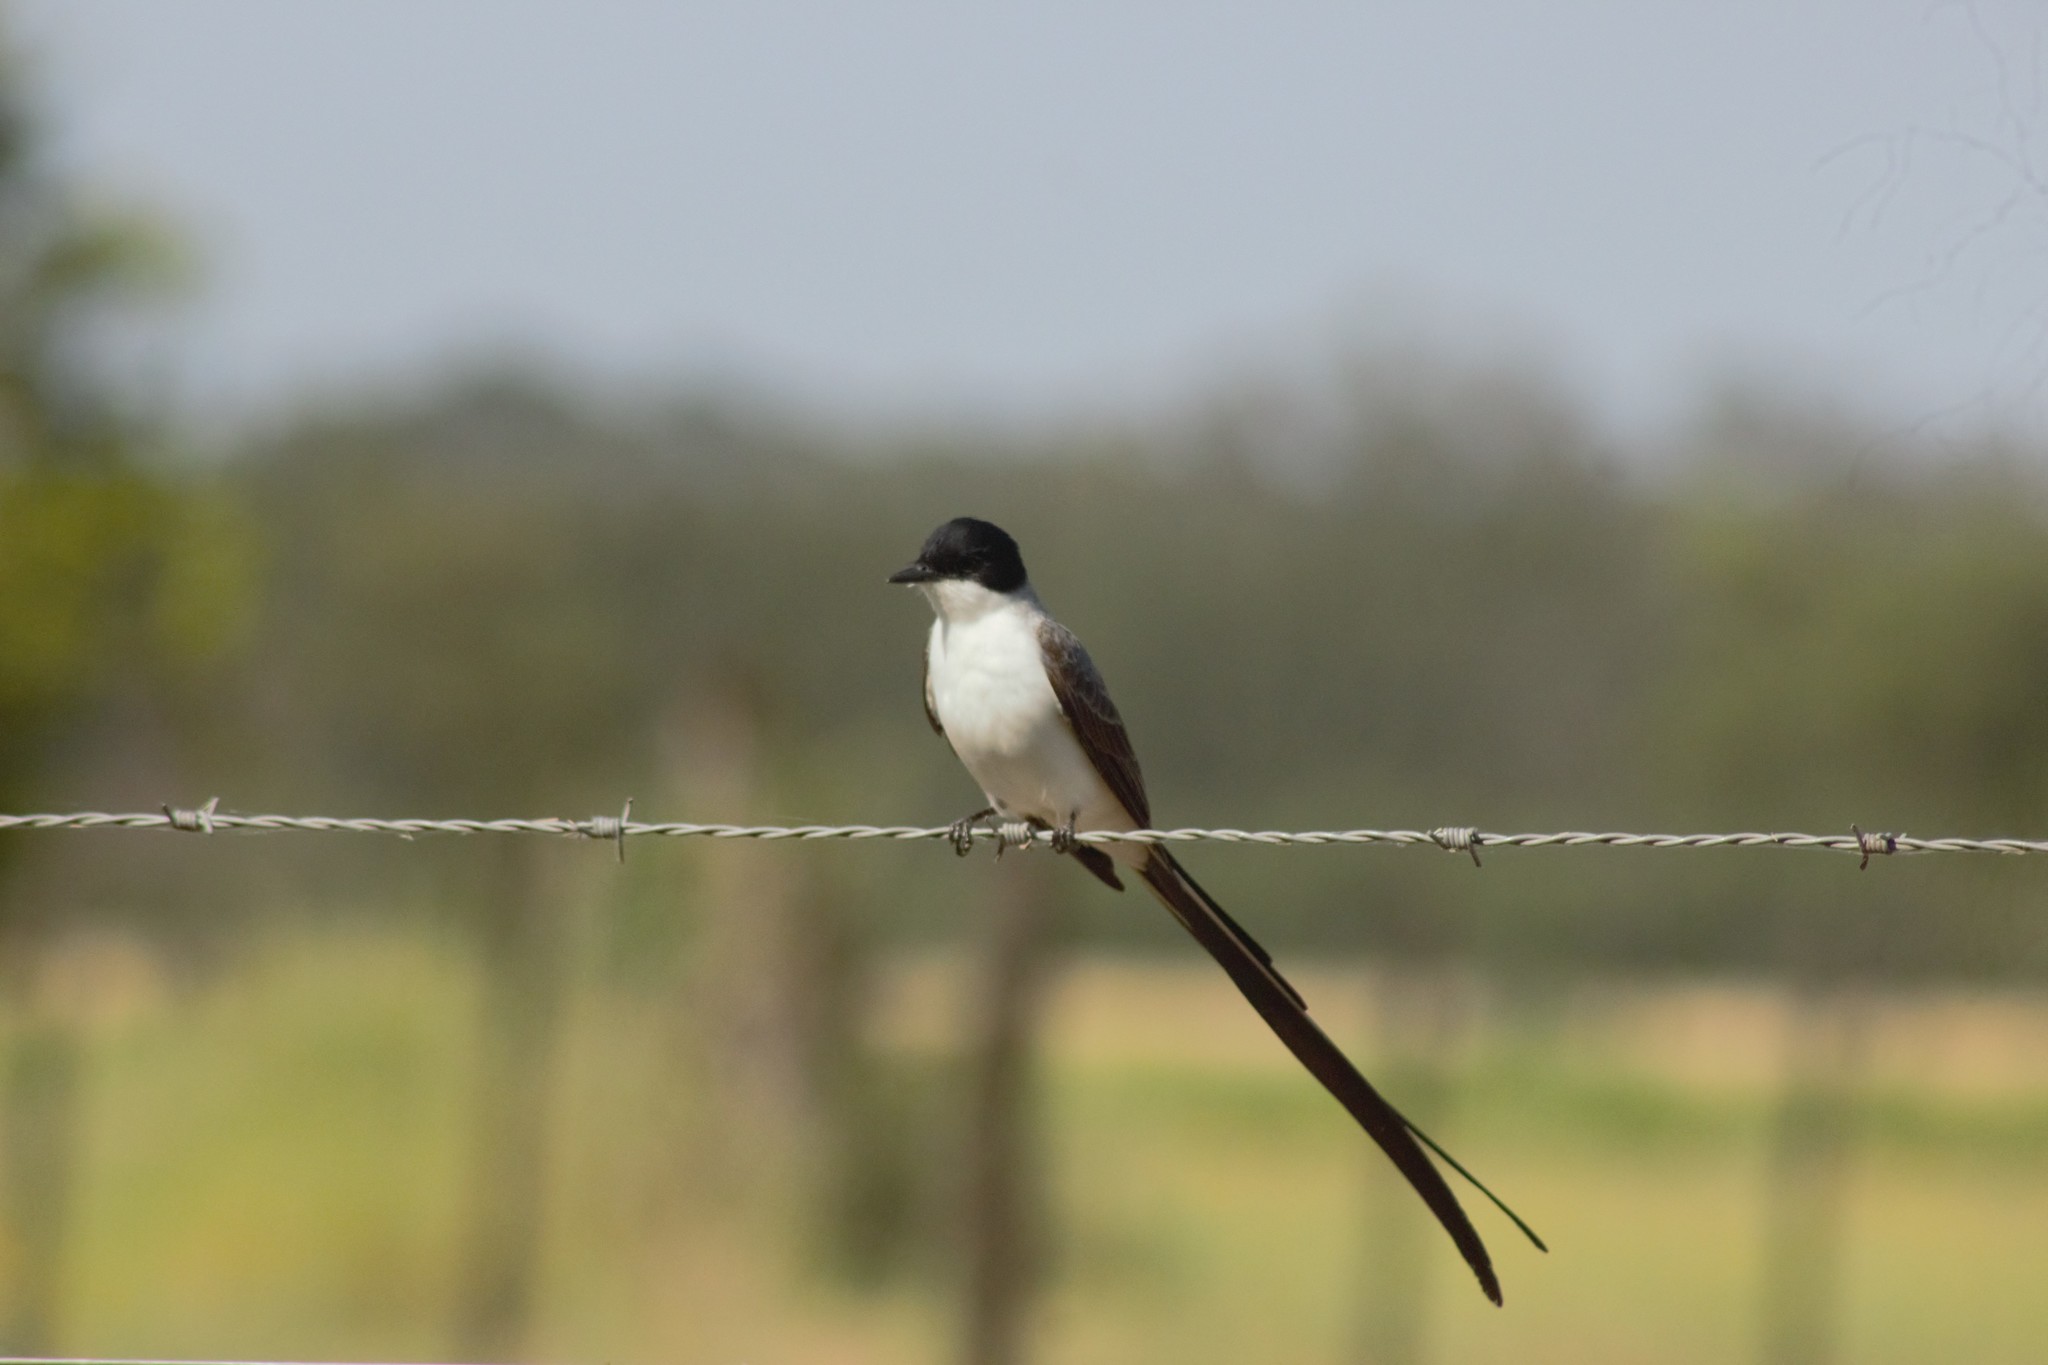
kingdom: Animalia
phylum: Chordata
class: Aves
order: Passeriformes
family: Tyrannidae
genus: Tyrannus
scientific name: Tyrannus savana
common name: Fork-tailed flycatcher
